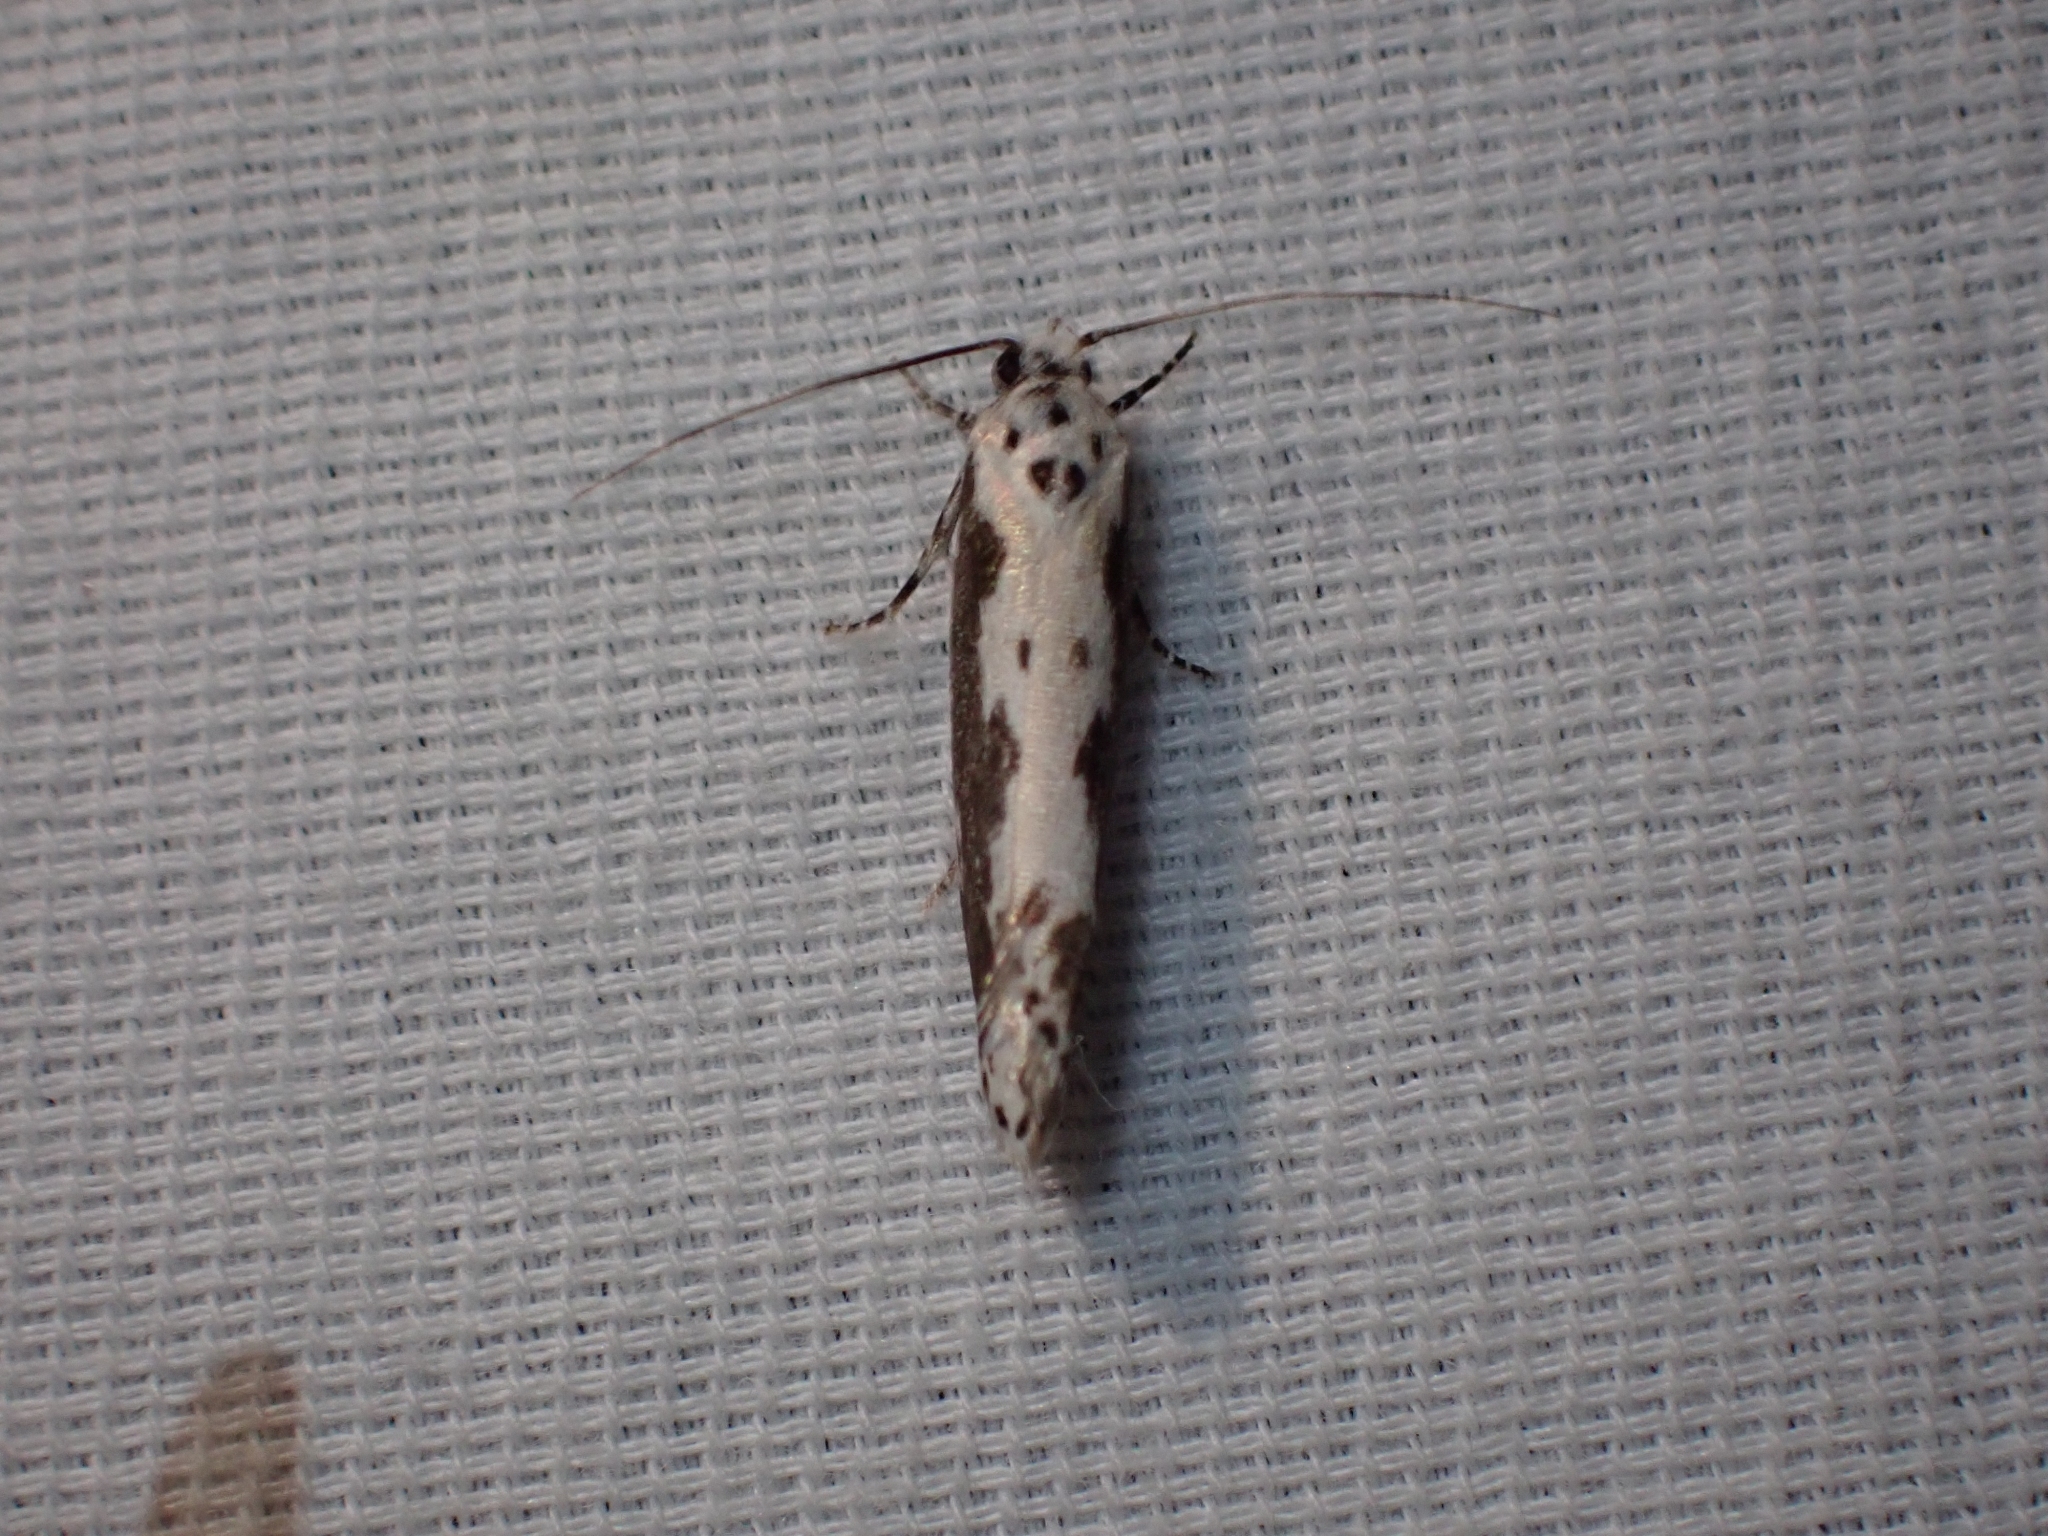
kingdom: Animalia
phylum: Arthropoda
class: Insecta
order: Lepidoptera
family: Ethmiidae
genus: Ethmia
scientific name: Ethmia marmorea
